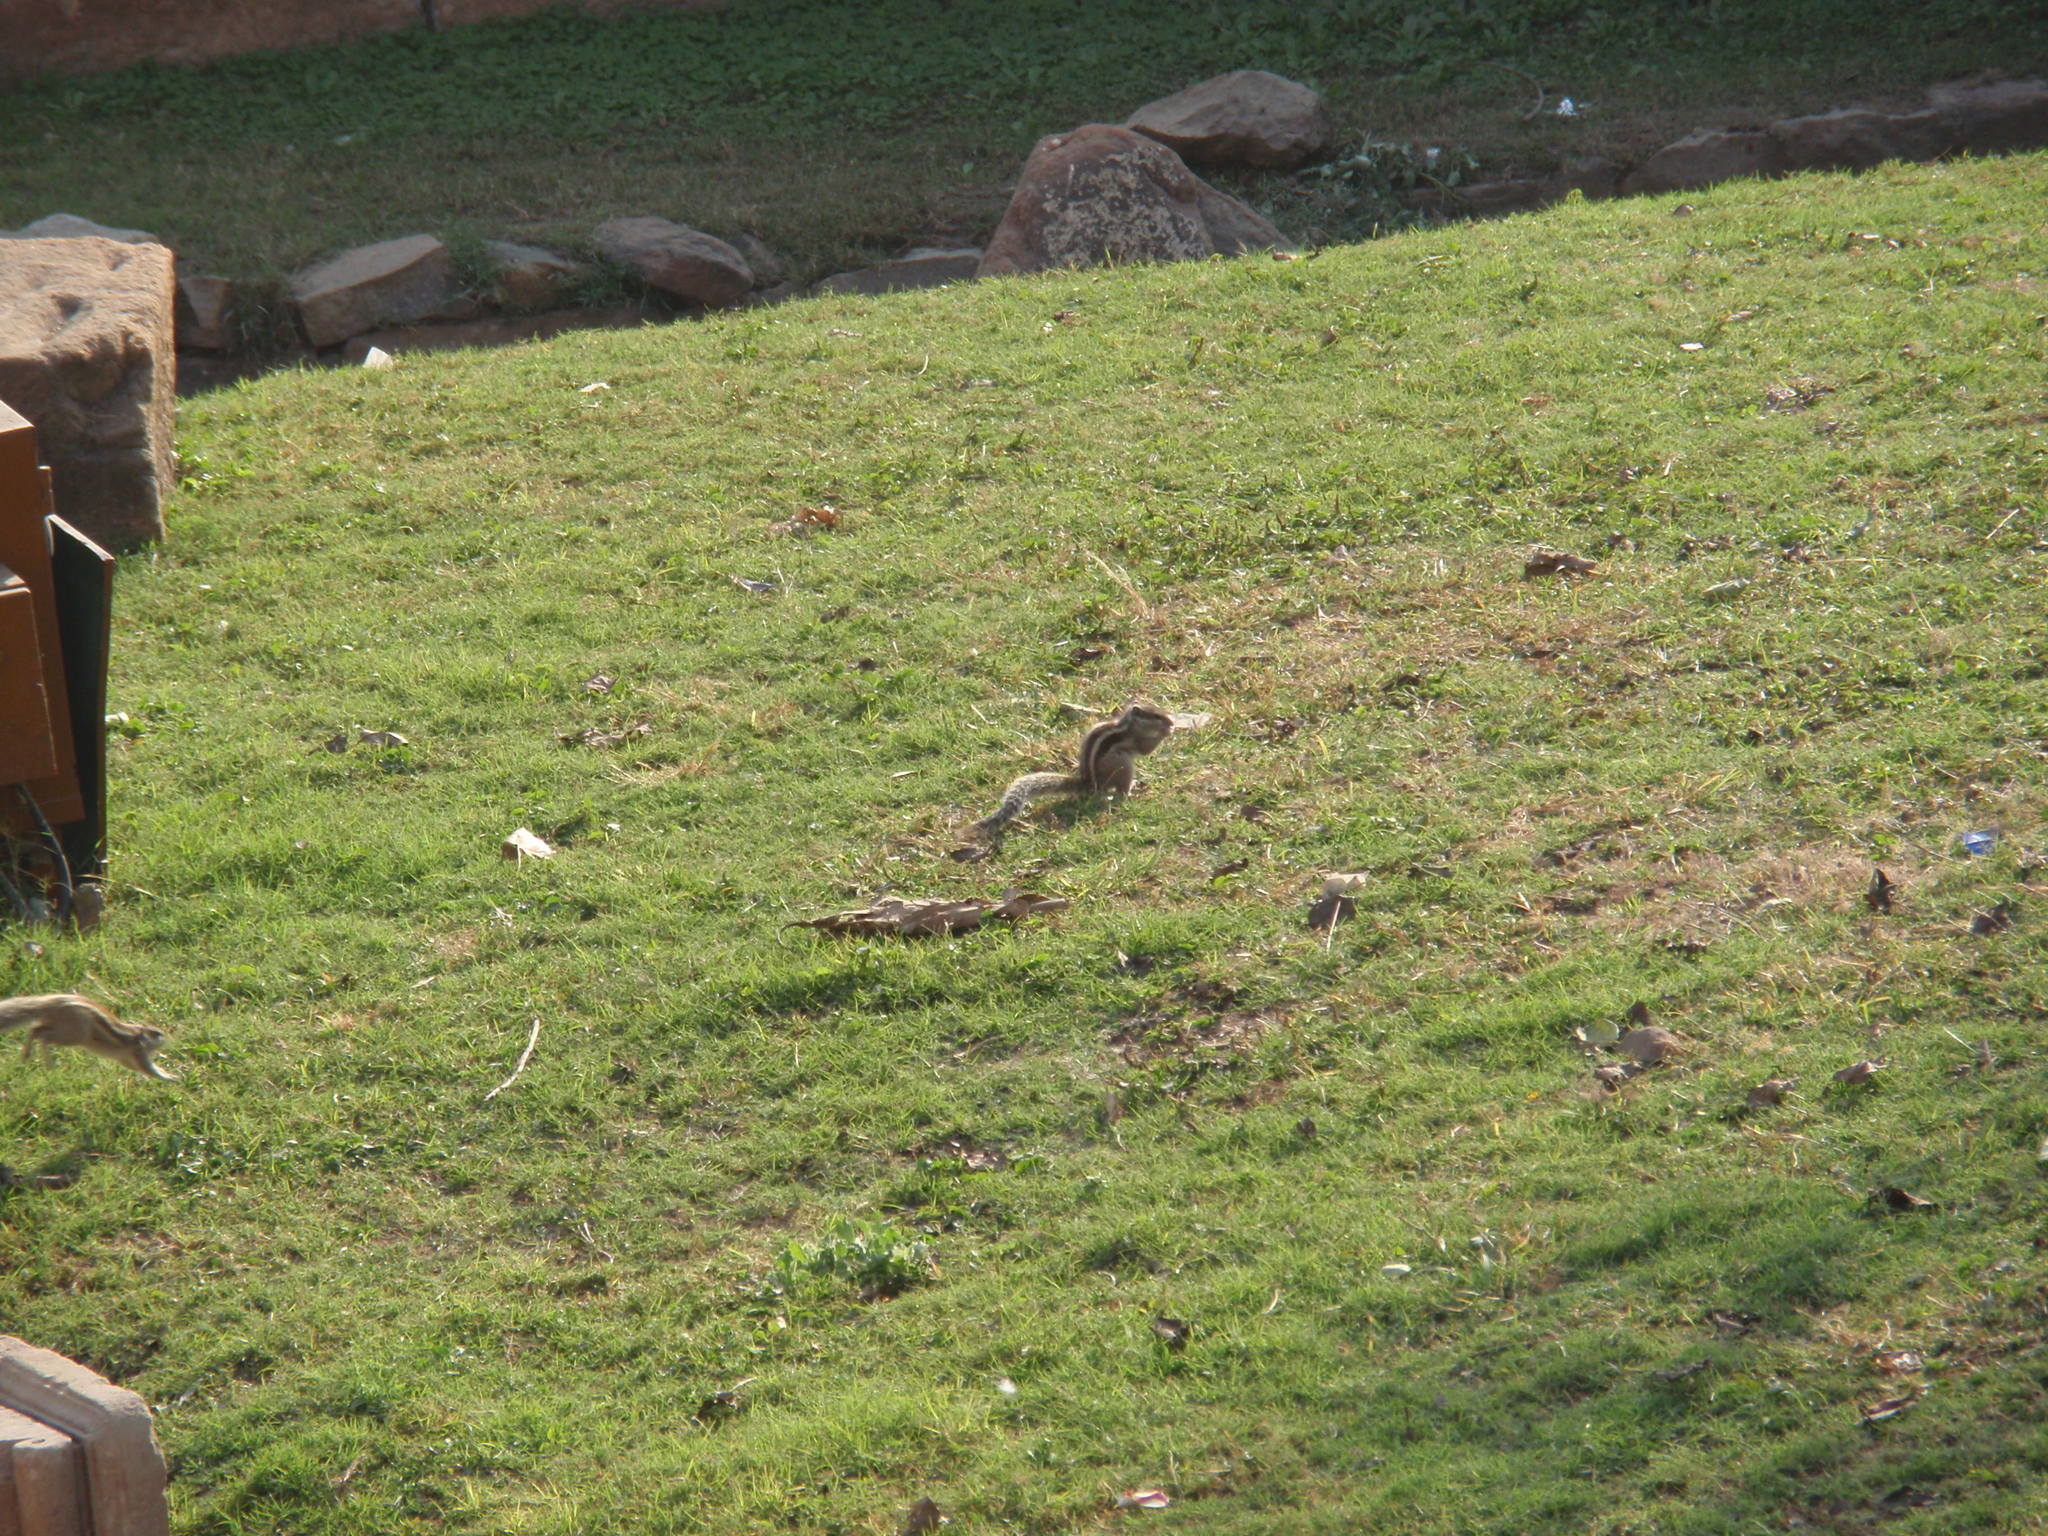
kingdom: Animalia
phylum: Chordata
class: Mammalia
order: Rodentia
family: Sciuridae
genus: Funambulus
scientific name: Funambulus pennantii
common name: Northern palm squirrel
